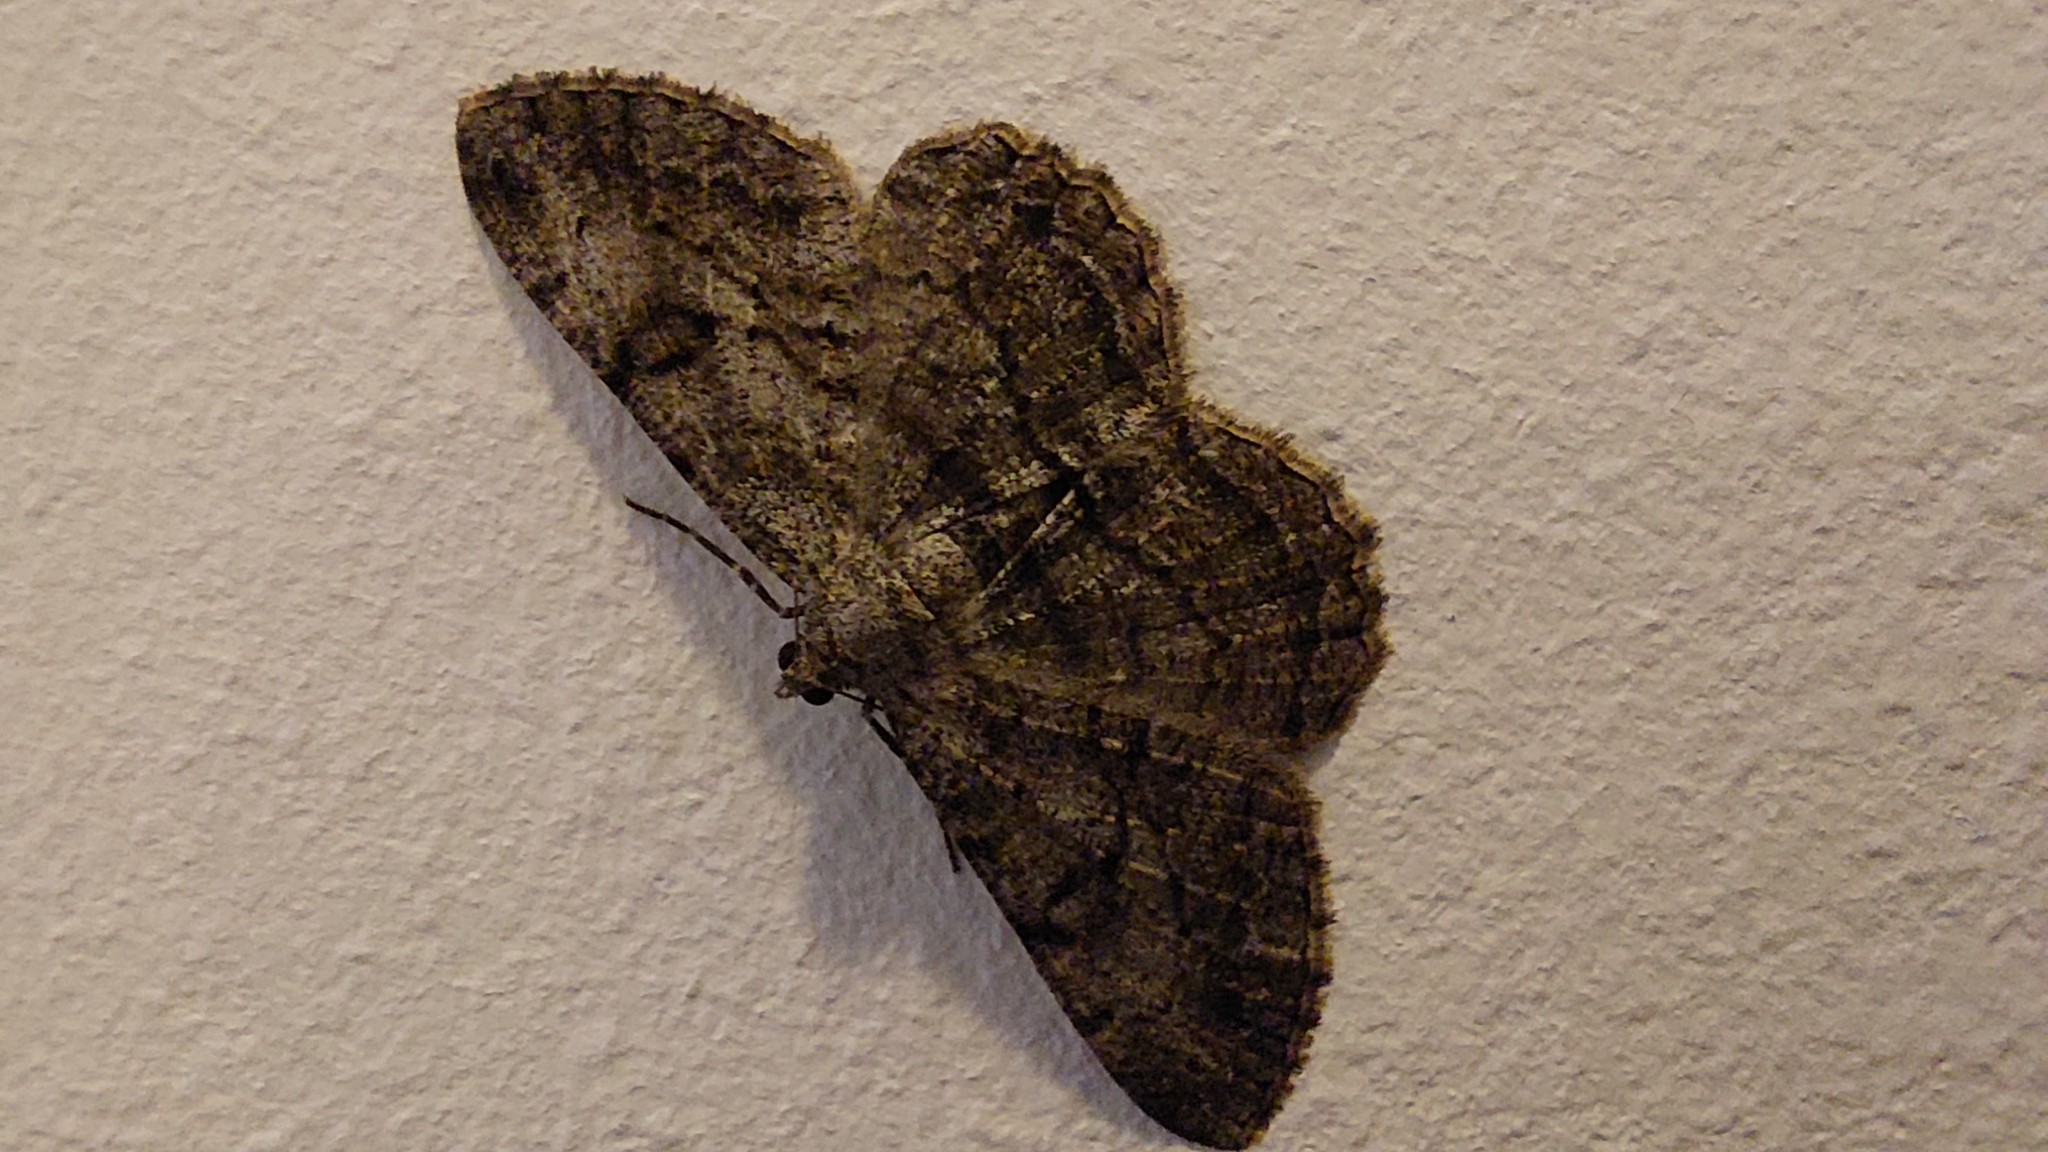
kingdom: Animalia
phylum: Arthropoda
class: Insecta
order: Lepidoptera
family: Geometridae
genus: Peribatodes
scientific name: Peribatodes rhomboidaria
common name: Willow beauty
